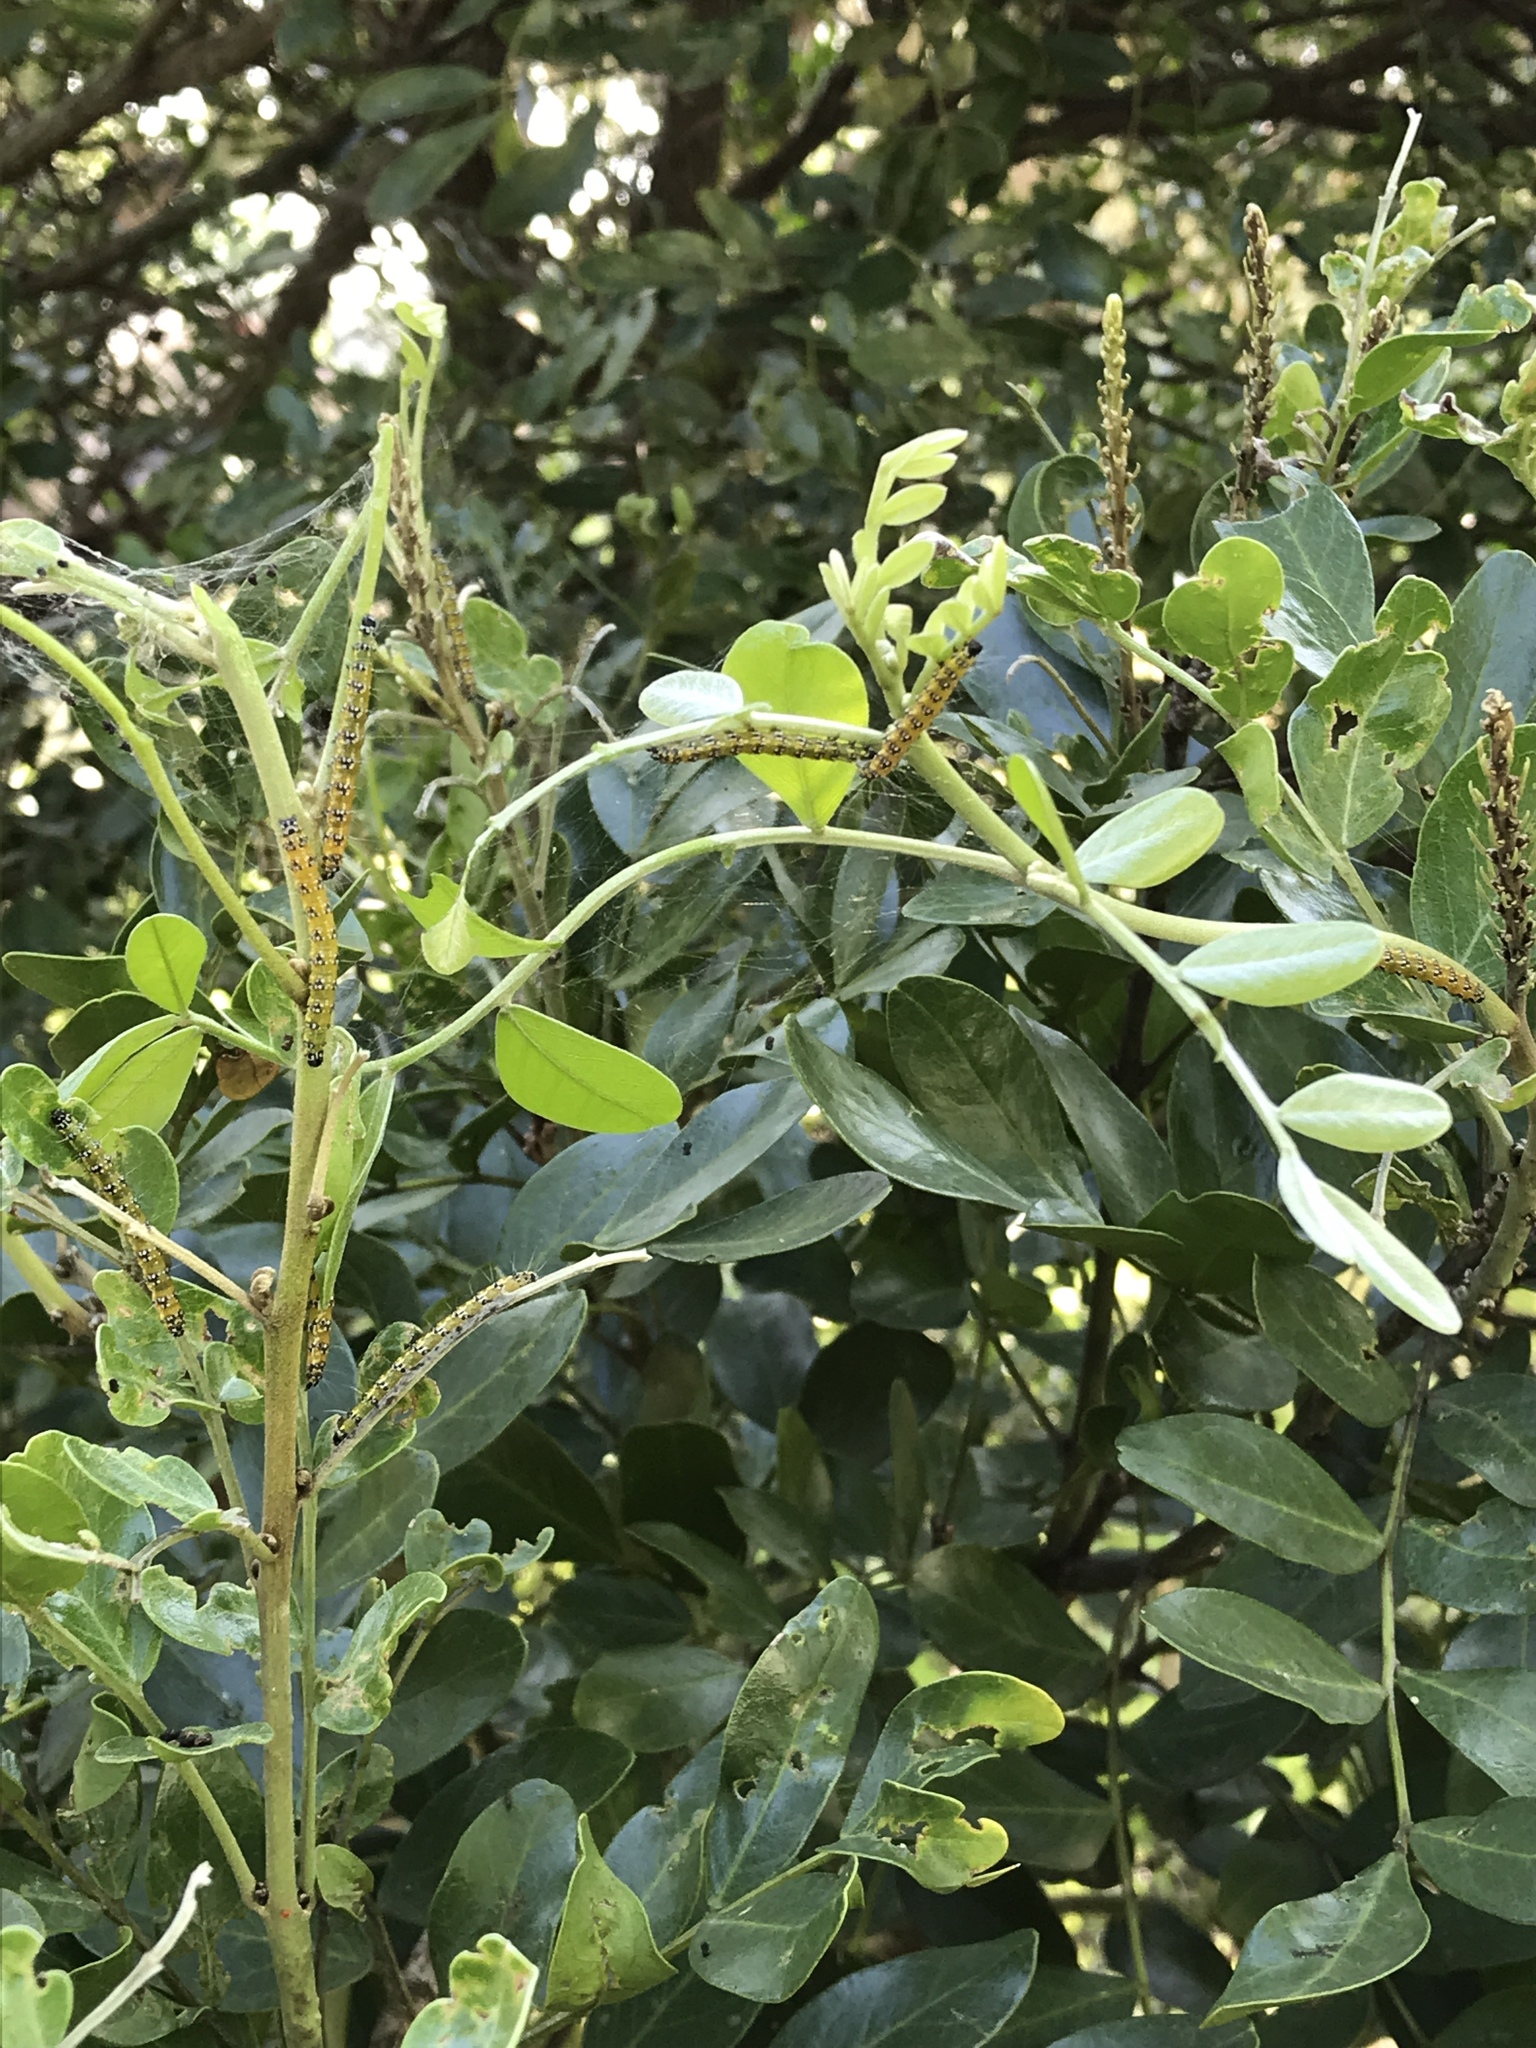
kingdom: Animalia
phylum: Arthropoda
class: Insecta
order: Lepidoptera
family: Crambidae
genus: Uresiphita
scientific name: Uresiphita reversalis
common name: Genista broom moth
